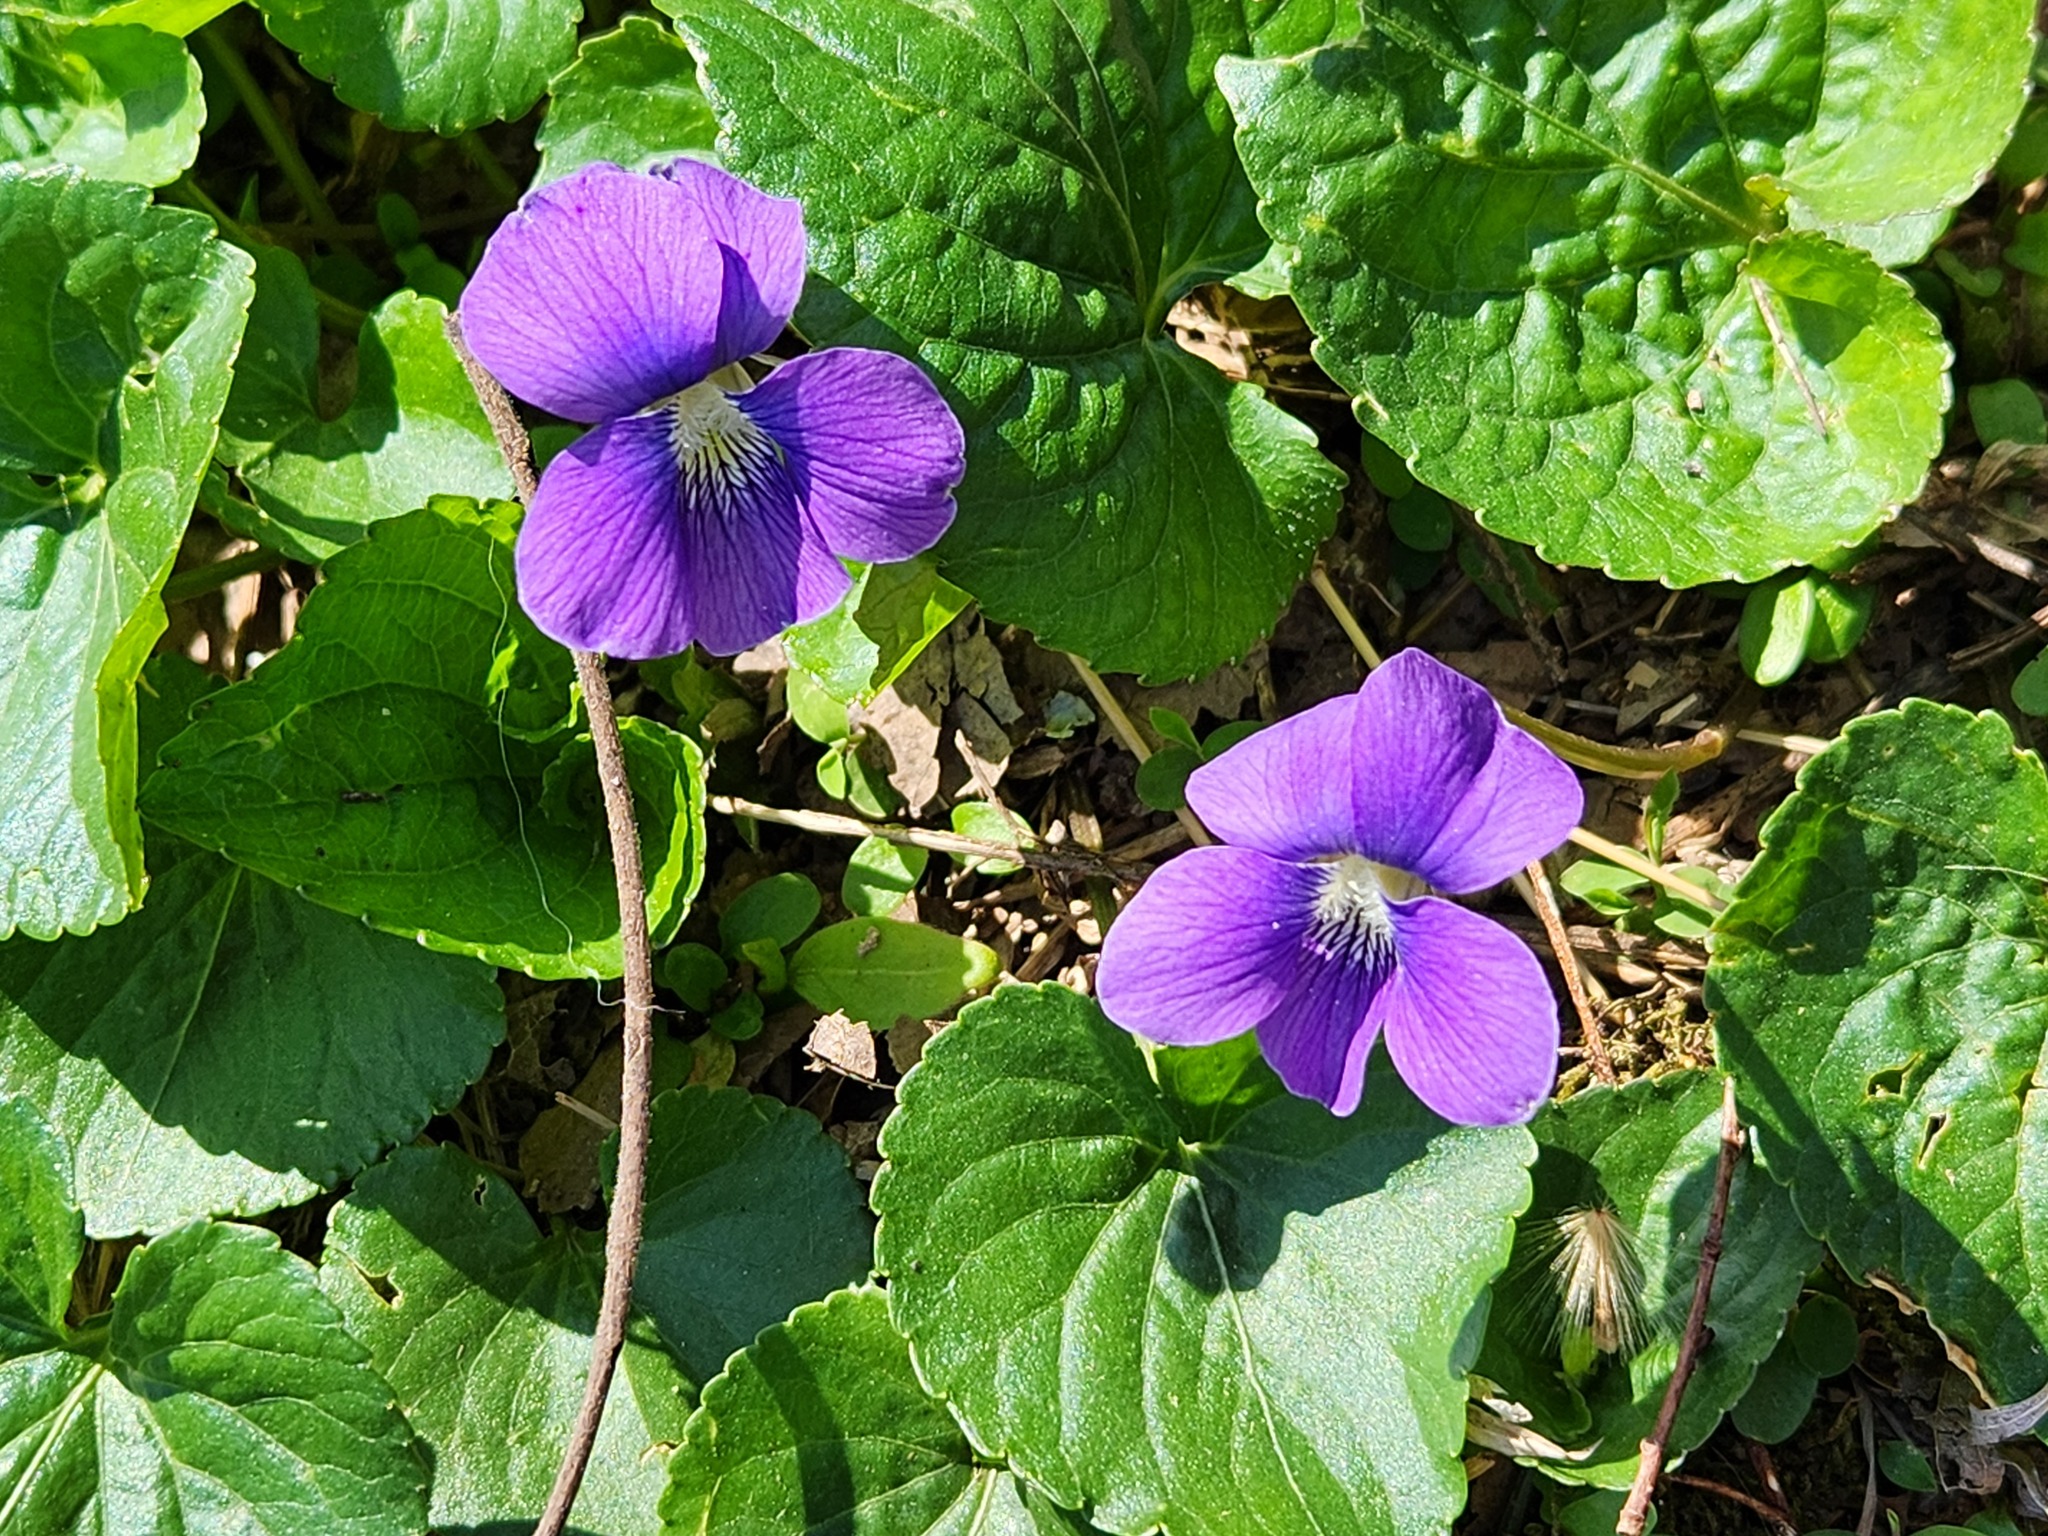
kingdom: Plantae
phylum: Tracheophyta
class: Magnoliopsida
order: Malpighiales
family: Violaceae
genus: Viola
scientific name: Viola sororia
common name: Dooryard violet
